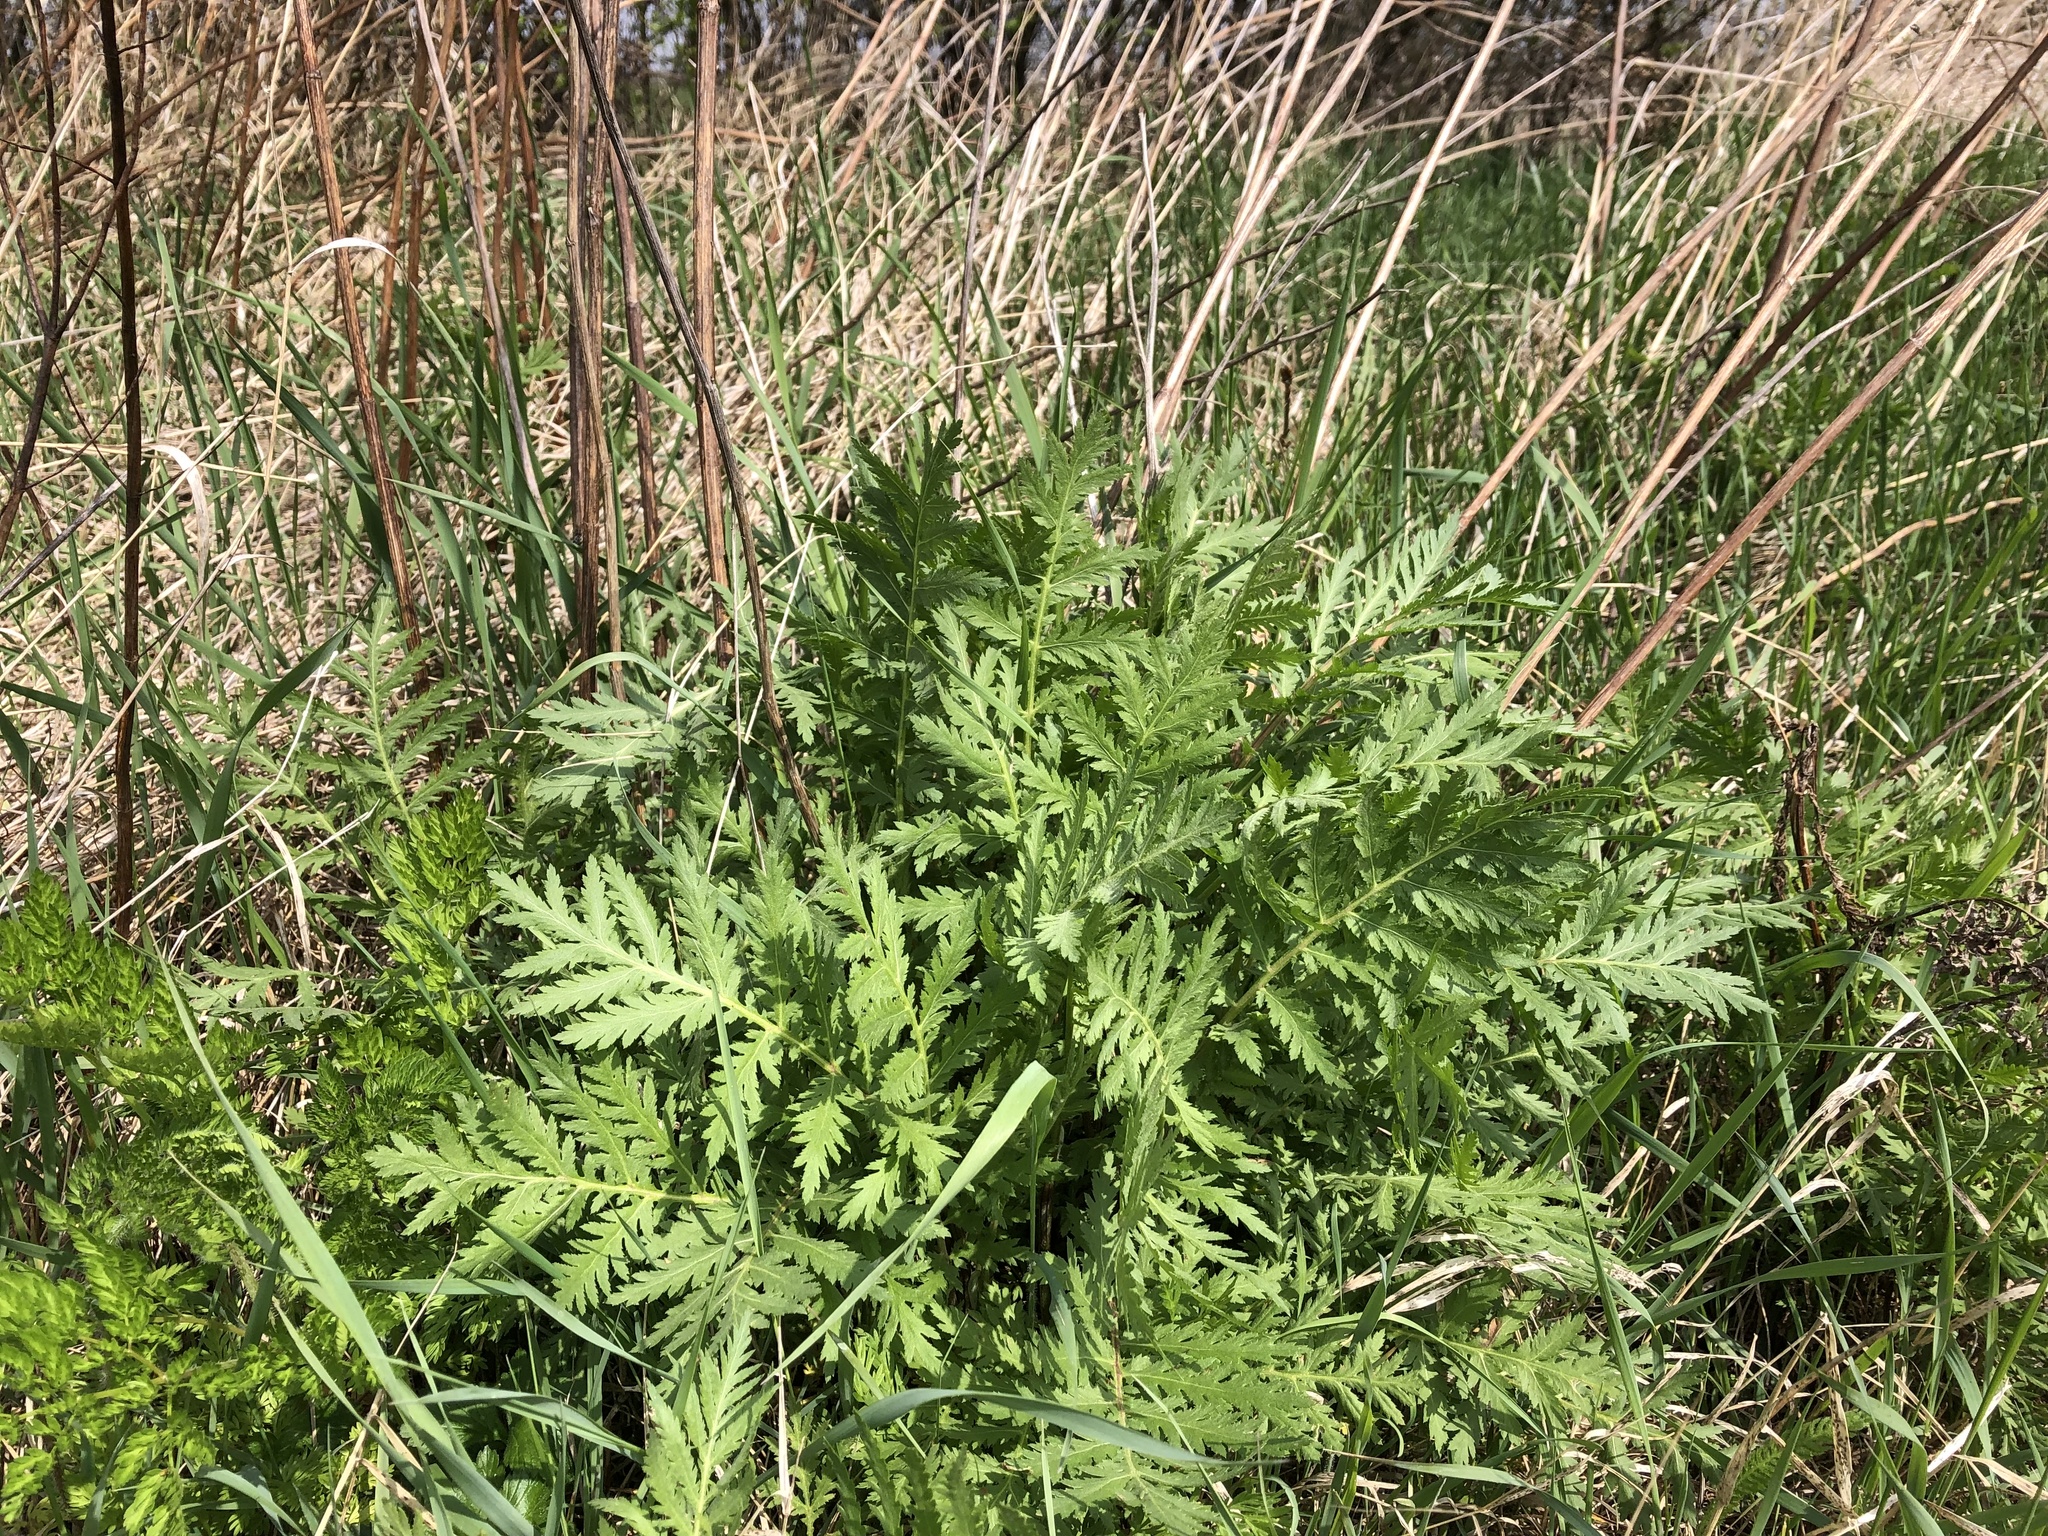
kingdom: Plantae
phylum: Tracheophyta
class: Magnoliopsida
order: Asterales
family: Asteraceae
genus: Tanacetum
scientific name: Tanacetum vulgare
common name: Common tansy
